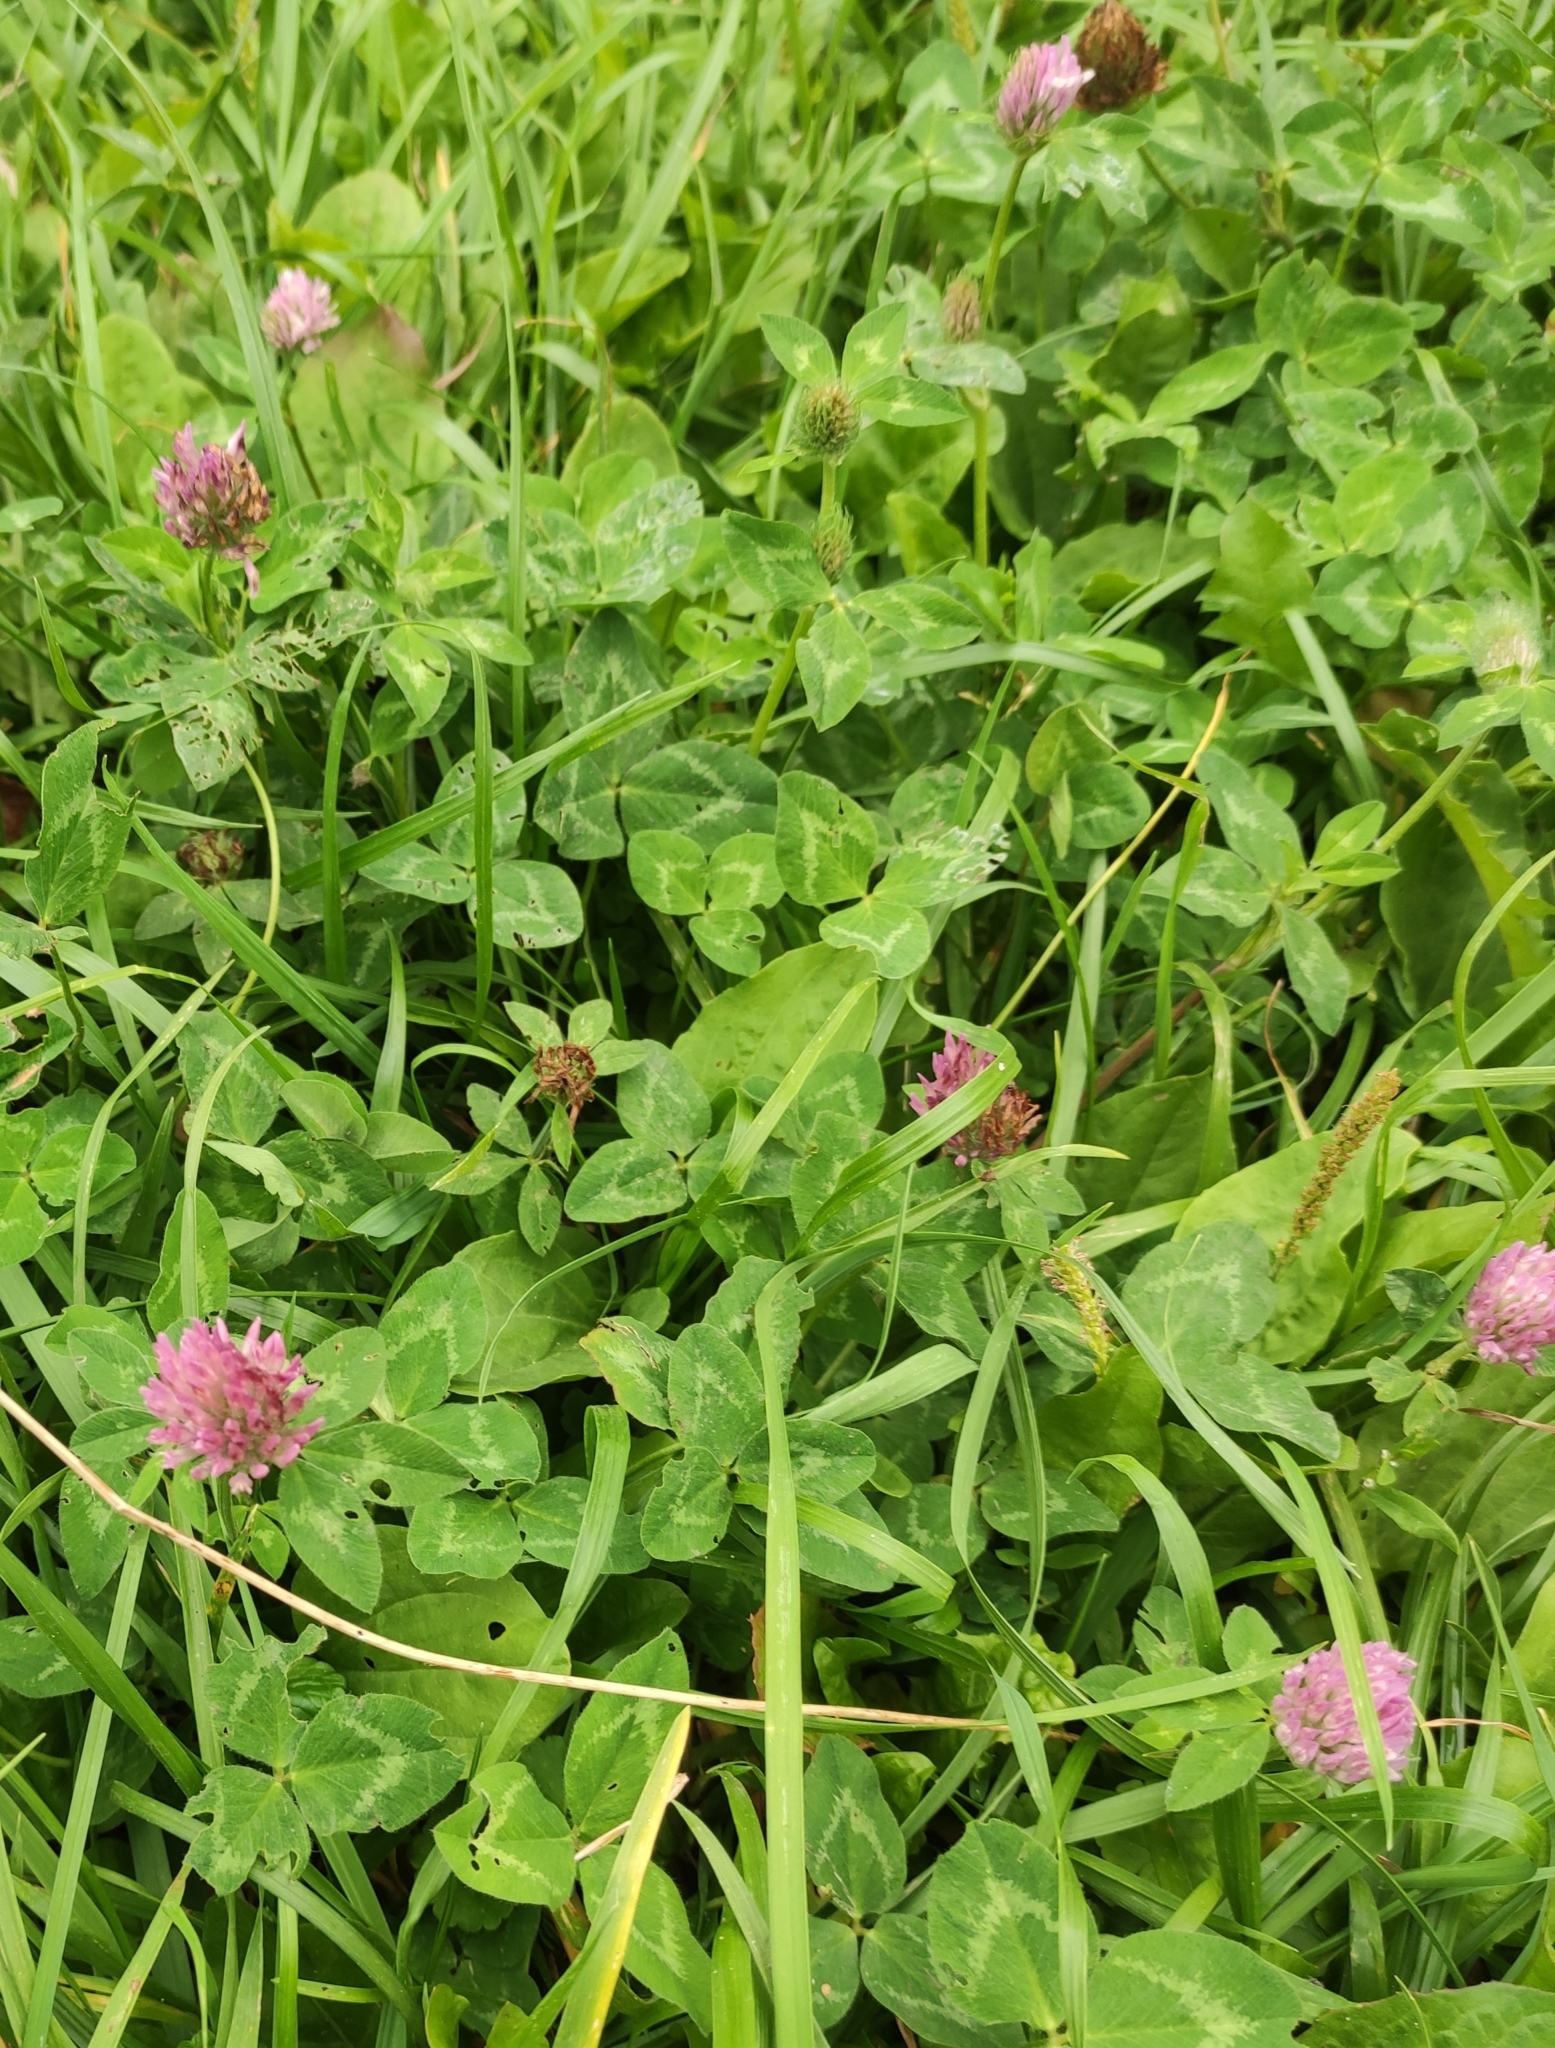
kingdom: Plantae
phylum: Tracheophyta
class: Magnoliopsida
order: Fabales
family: Fabaceae
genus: Trifolium
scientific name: Trifolium pratense
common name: Red clover
